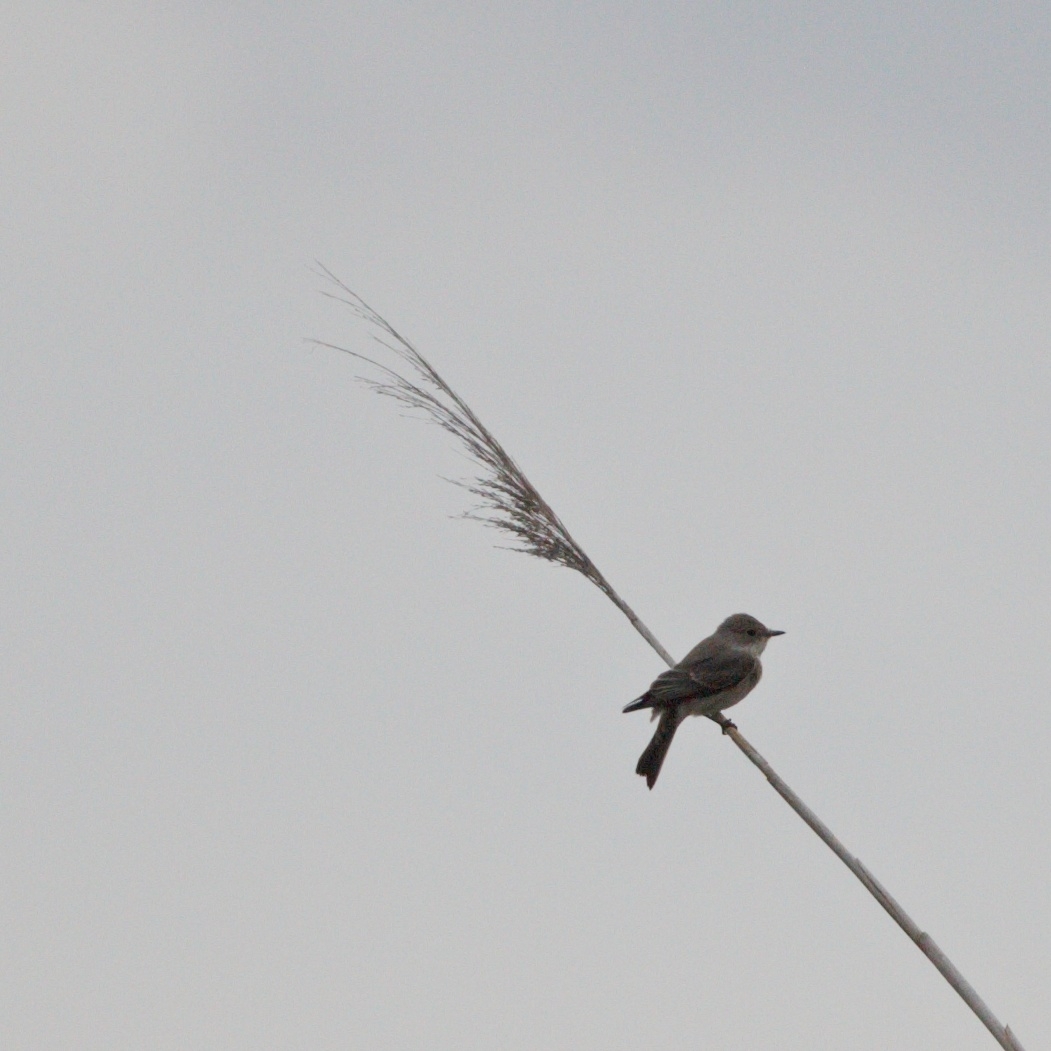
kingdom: Animalia
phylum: Chordata
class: Aves
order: Passeriformes
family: Muscicapidae
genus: Muscicapa
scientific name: Muscicapa striata
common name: Spotted flycatcher
